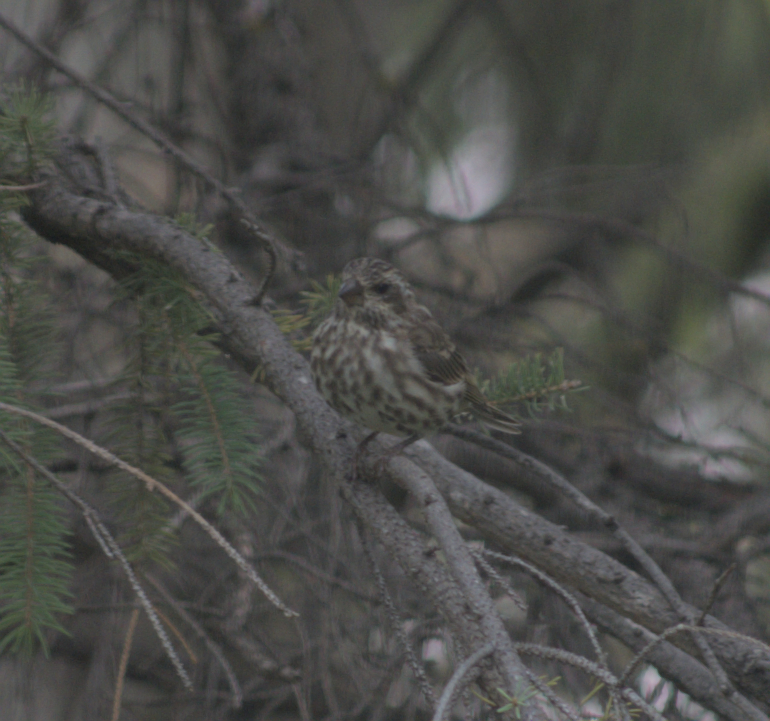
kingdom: Animalia
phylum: Chordata
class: Aves
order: Passeriformes
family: Fringillidae
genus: Haemorhous
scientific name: Haemorhous purpureus
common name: Purple finch
